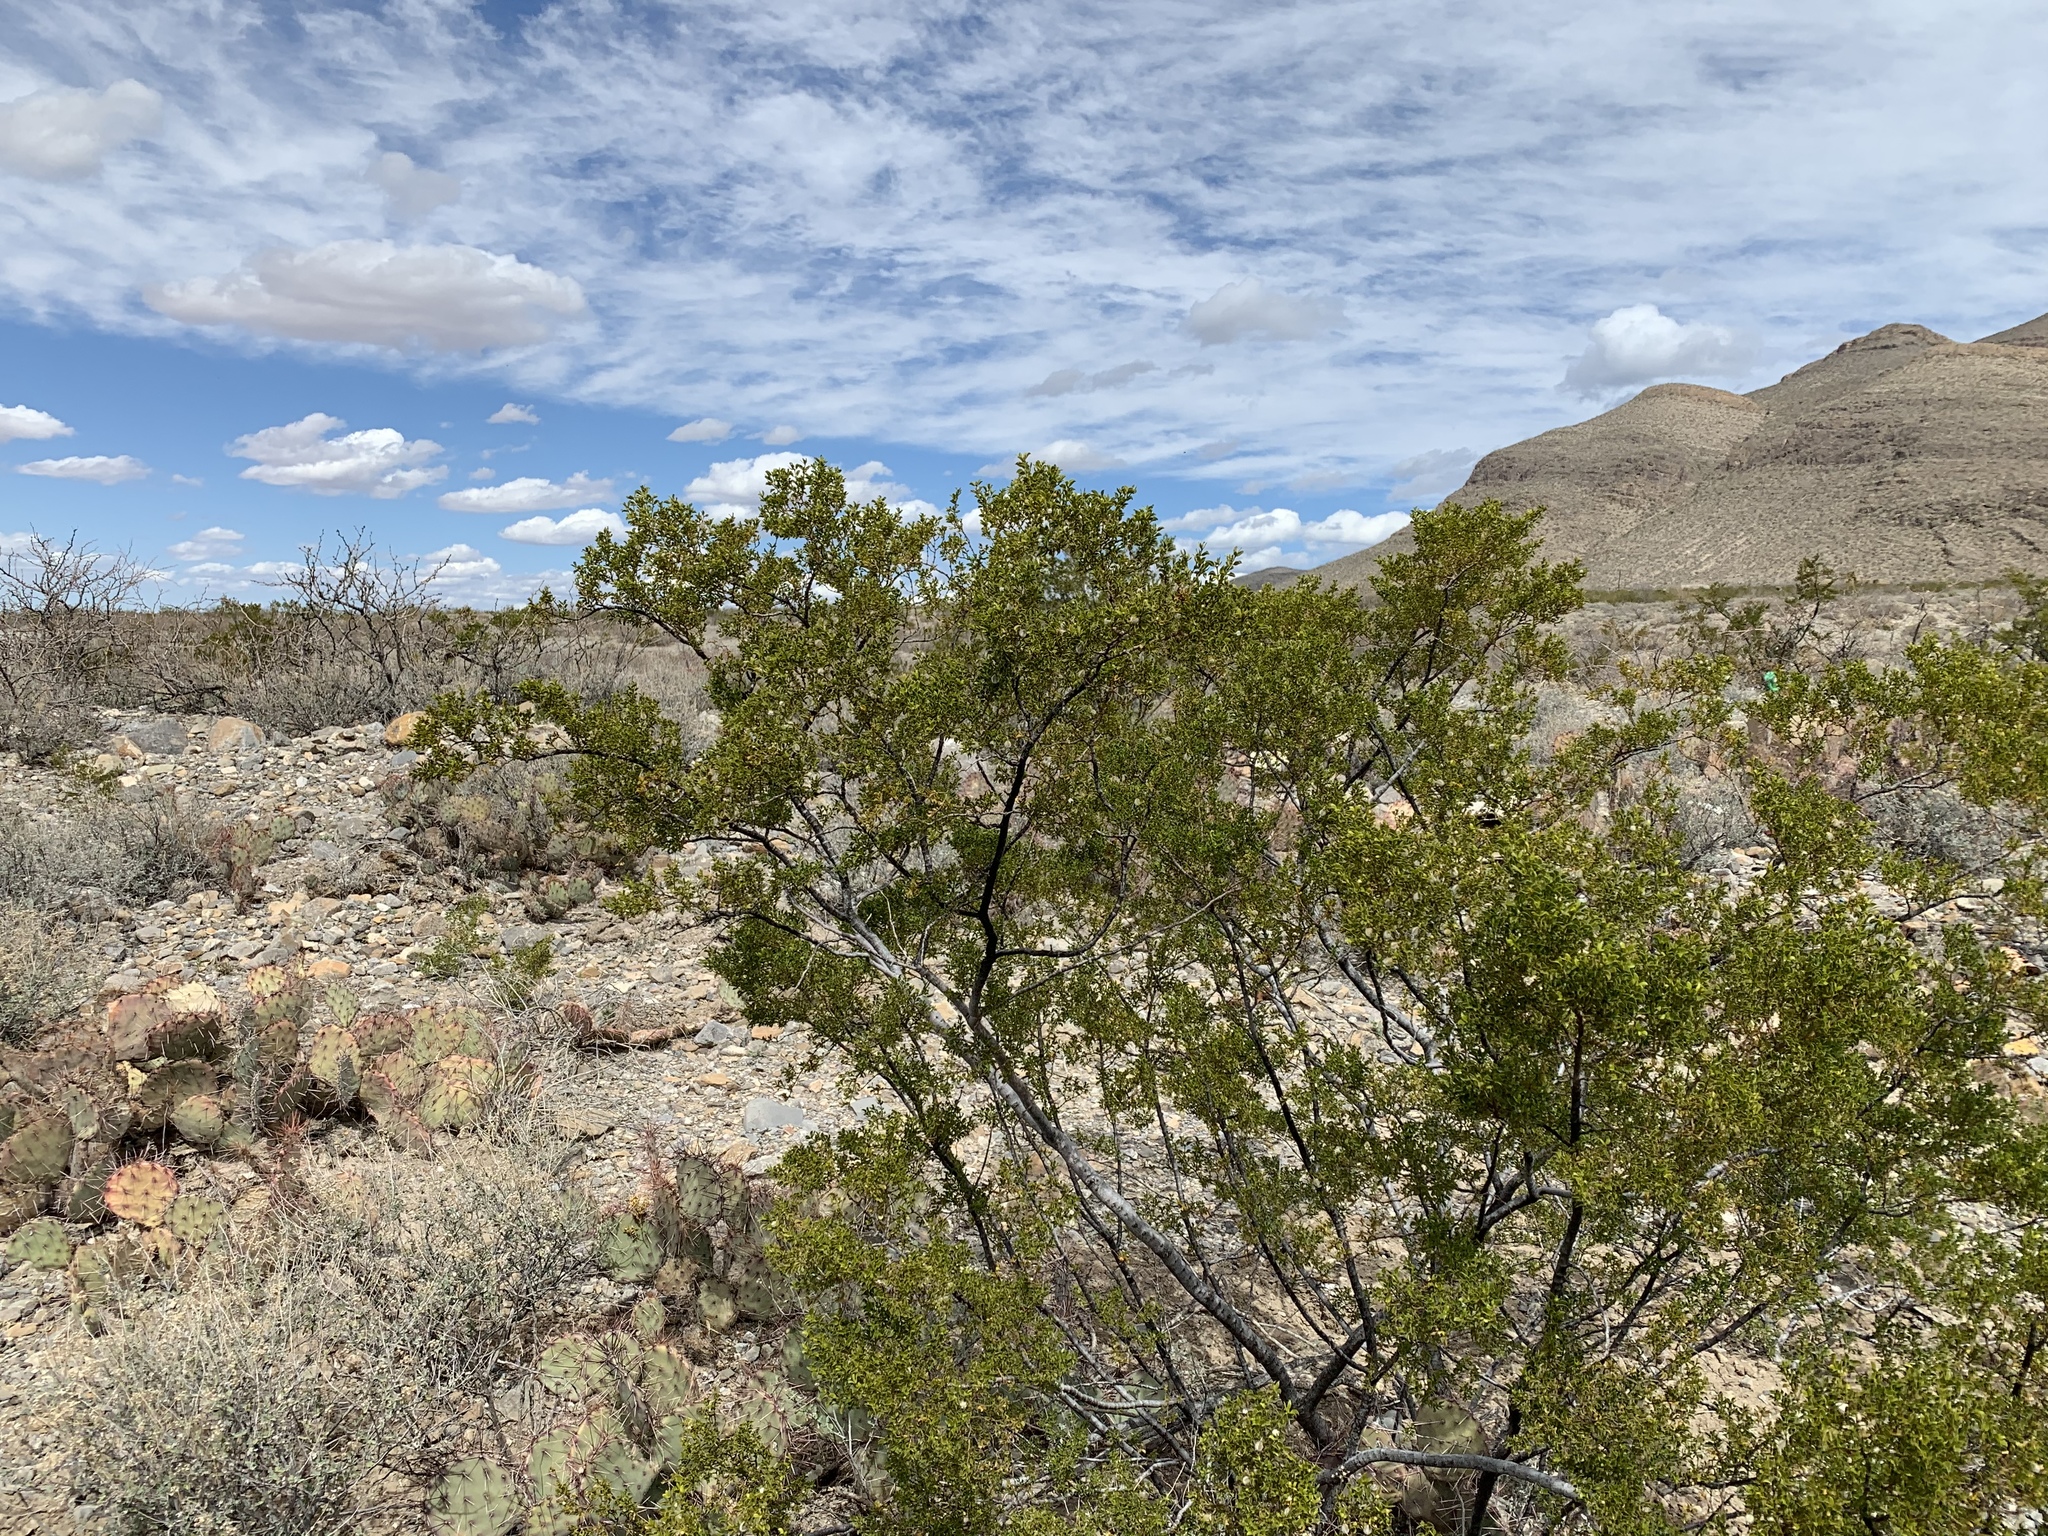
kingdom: Plantae
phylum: Tracheophyta
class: Magnoliopsida
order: Zygophyllales
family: Zygophyllaceae
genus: Larrea
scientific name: Larrea tridentata
